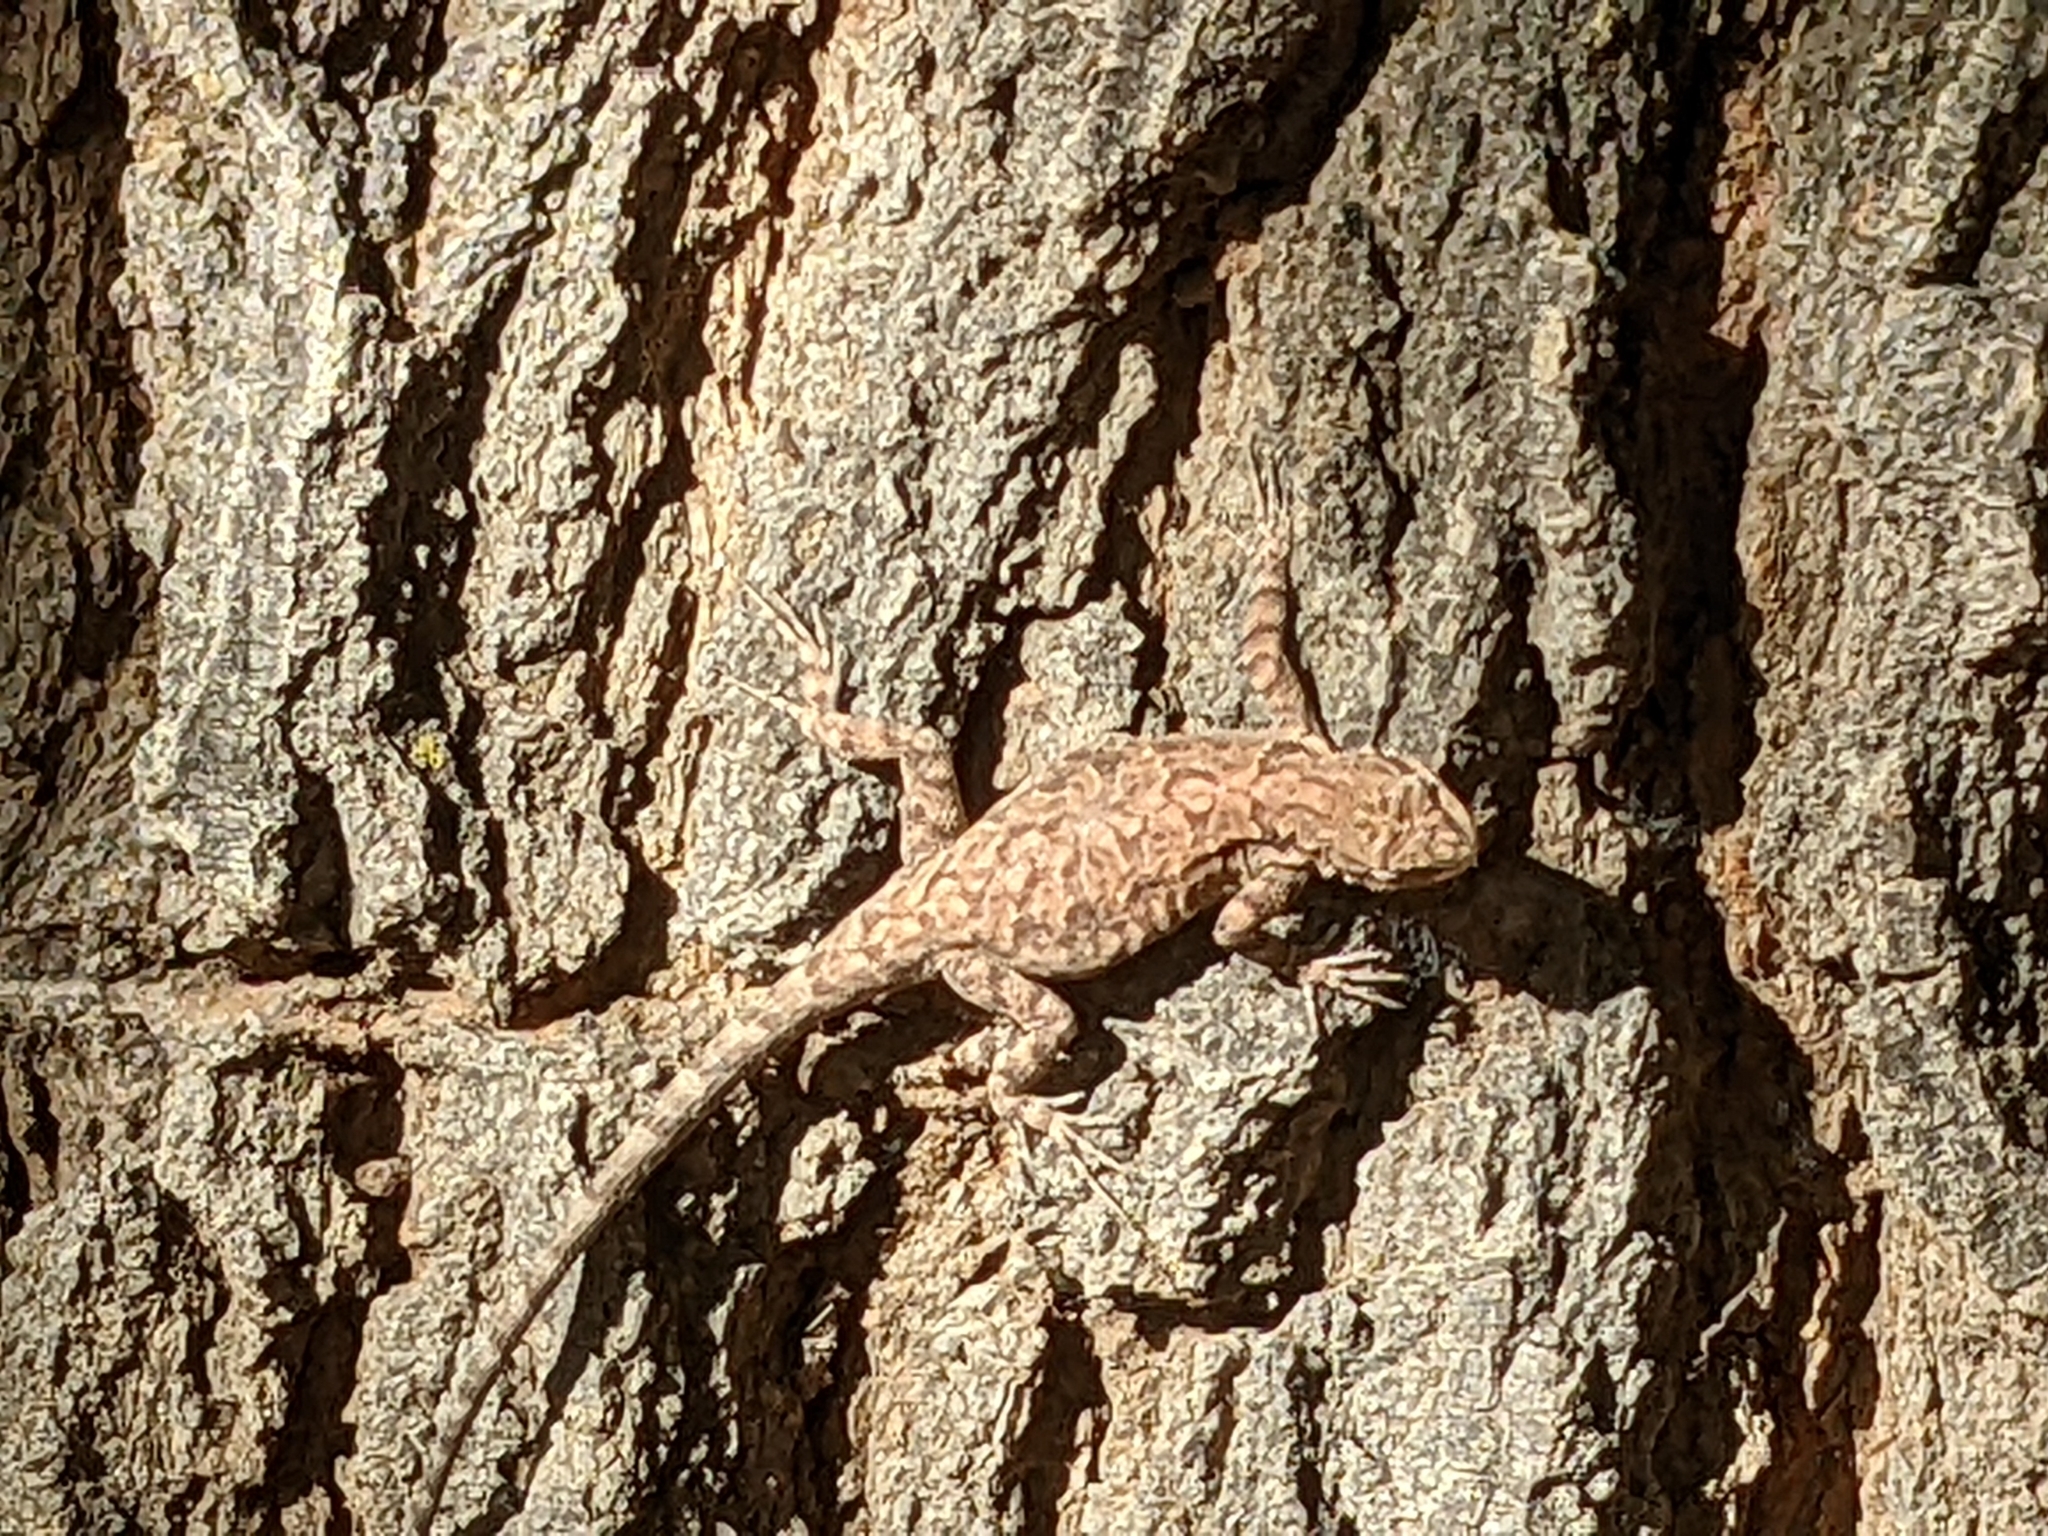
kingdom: Animalia
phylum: Chordata
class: Squamata
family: Phrynosomatidae
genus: Urosaurus
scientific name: Urosaurus ornatus
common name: Ornate tree lizard
